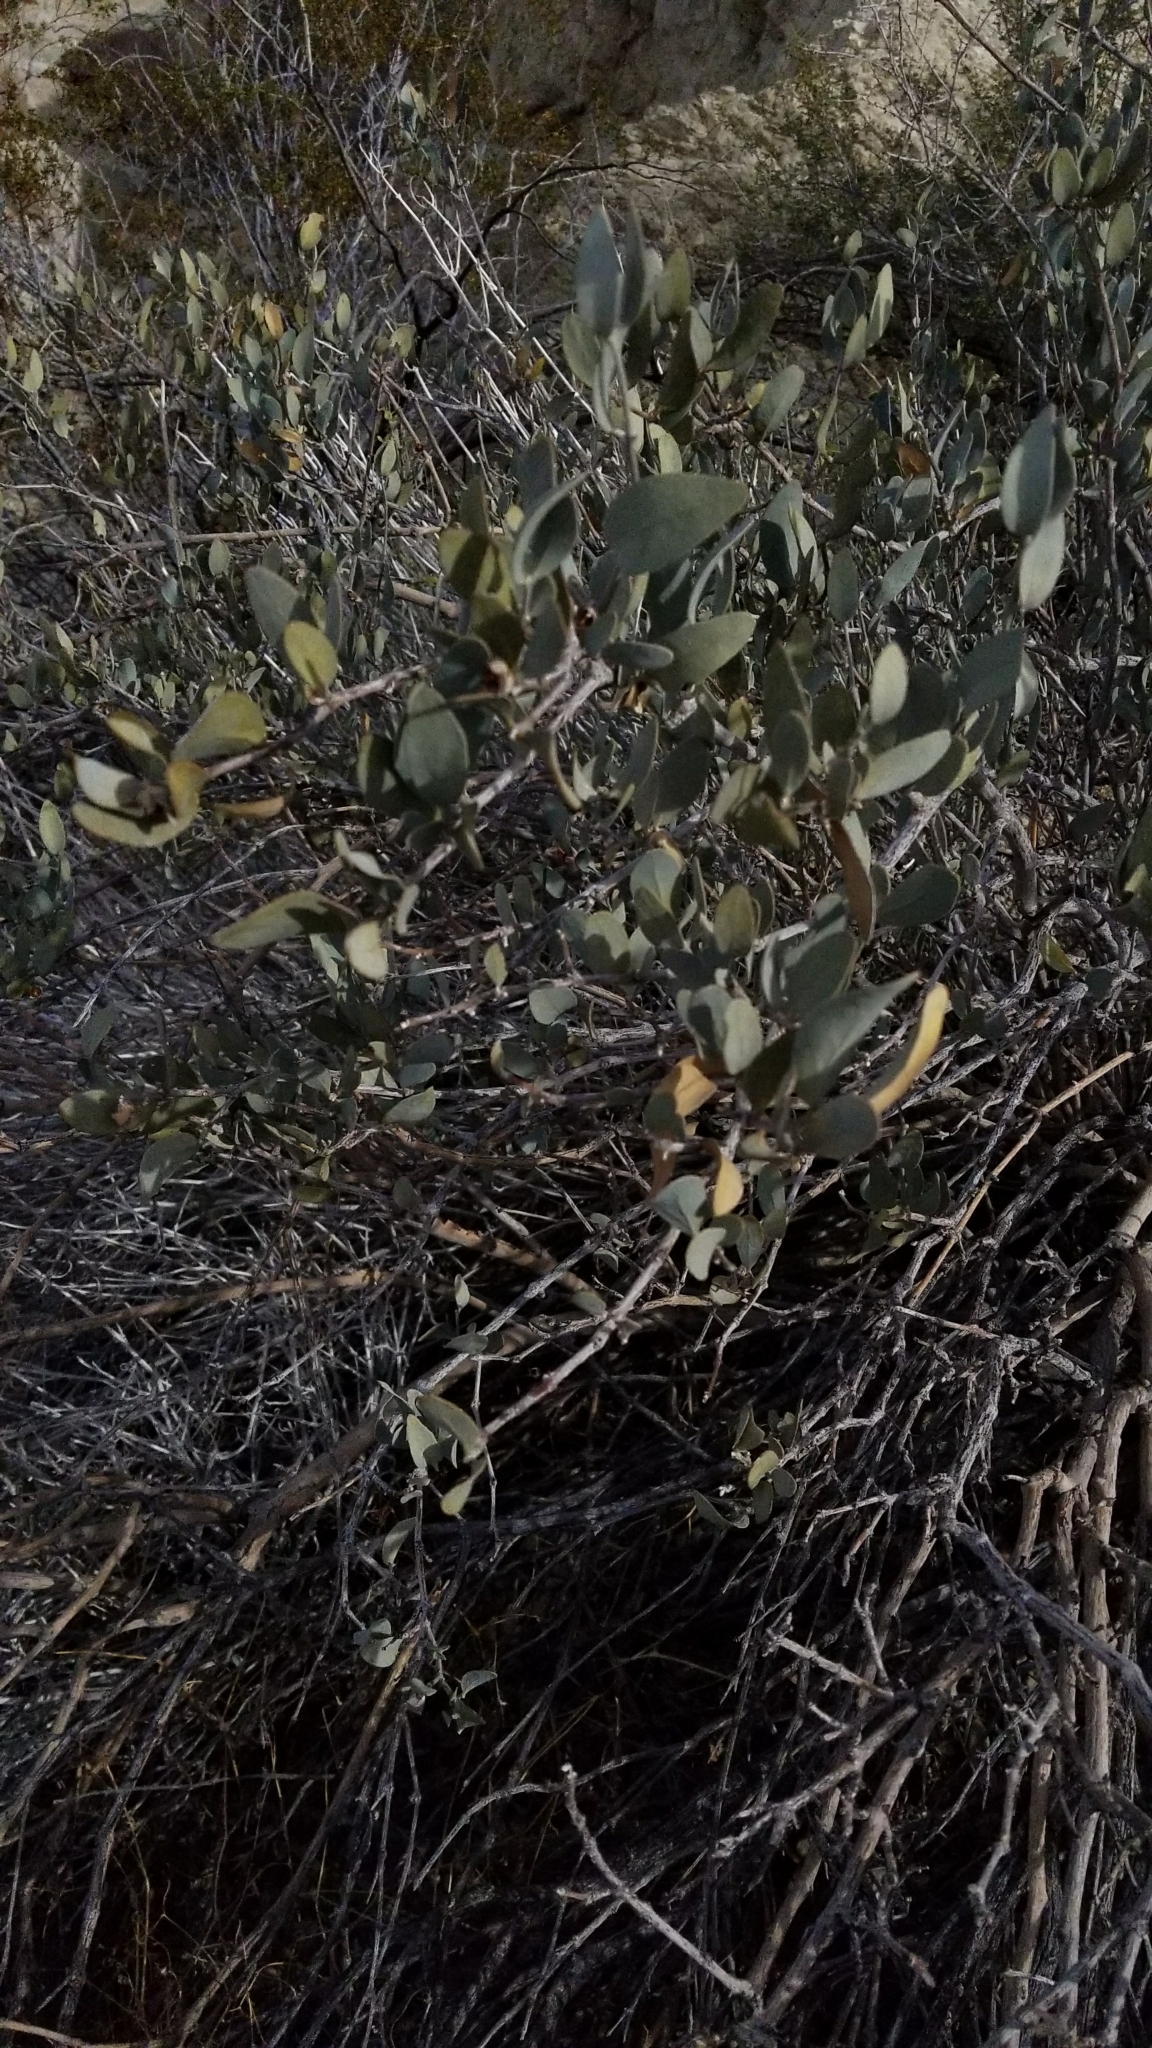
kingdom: Plantae
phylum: Tracheophyta
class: Magnoliopsida
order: Caryophyllales
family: Simmondsiaceae
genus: Simmondsia
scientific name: Simmondsia chinensis
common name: Jojoba
